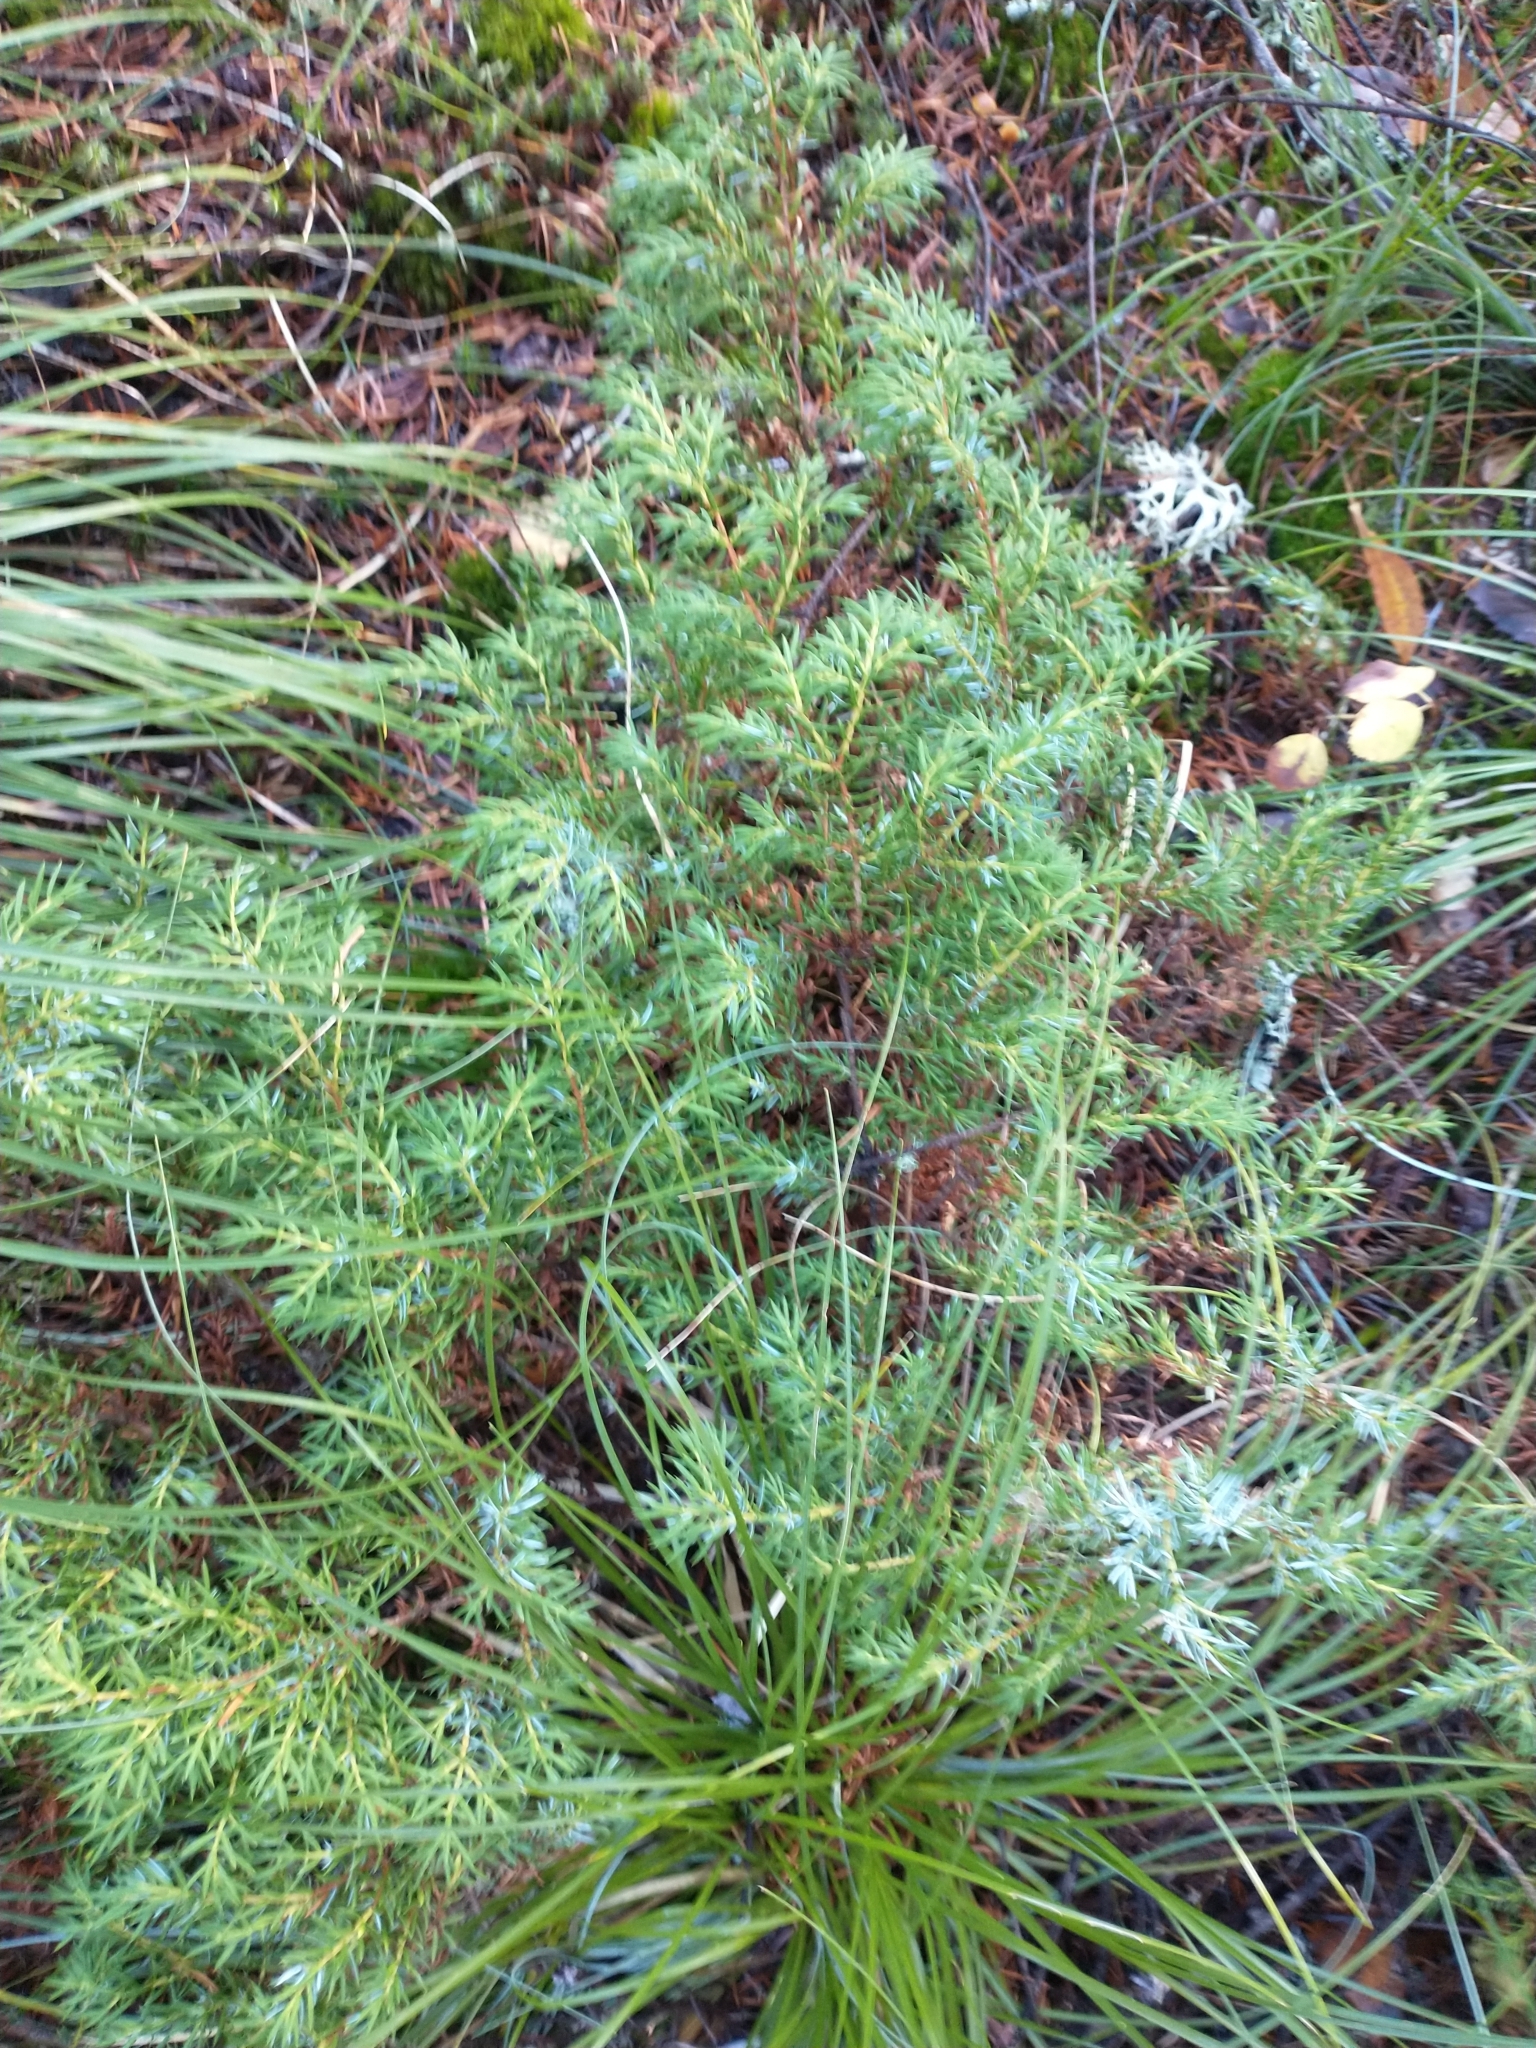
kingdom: Plantae
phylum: Tracheophyta
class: Pinopsida
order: Pinales
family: Cupressaceae
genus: Juniperus
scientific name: Juniperus communis
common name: Common juniper
